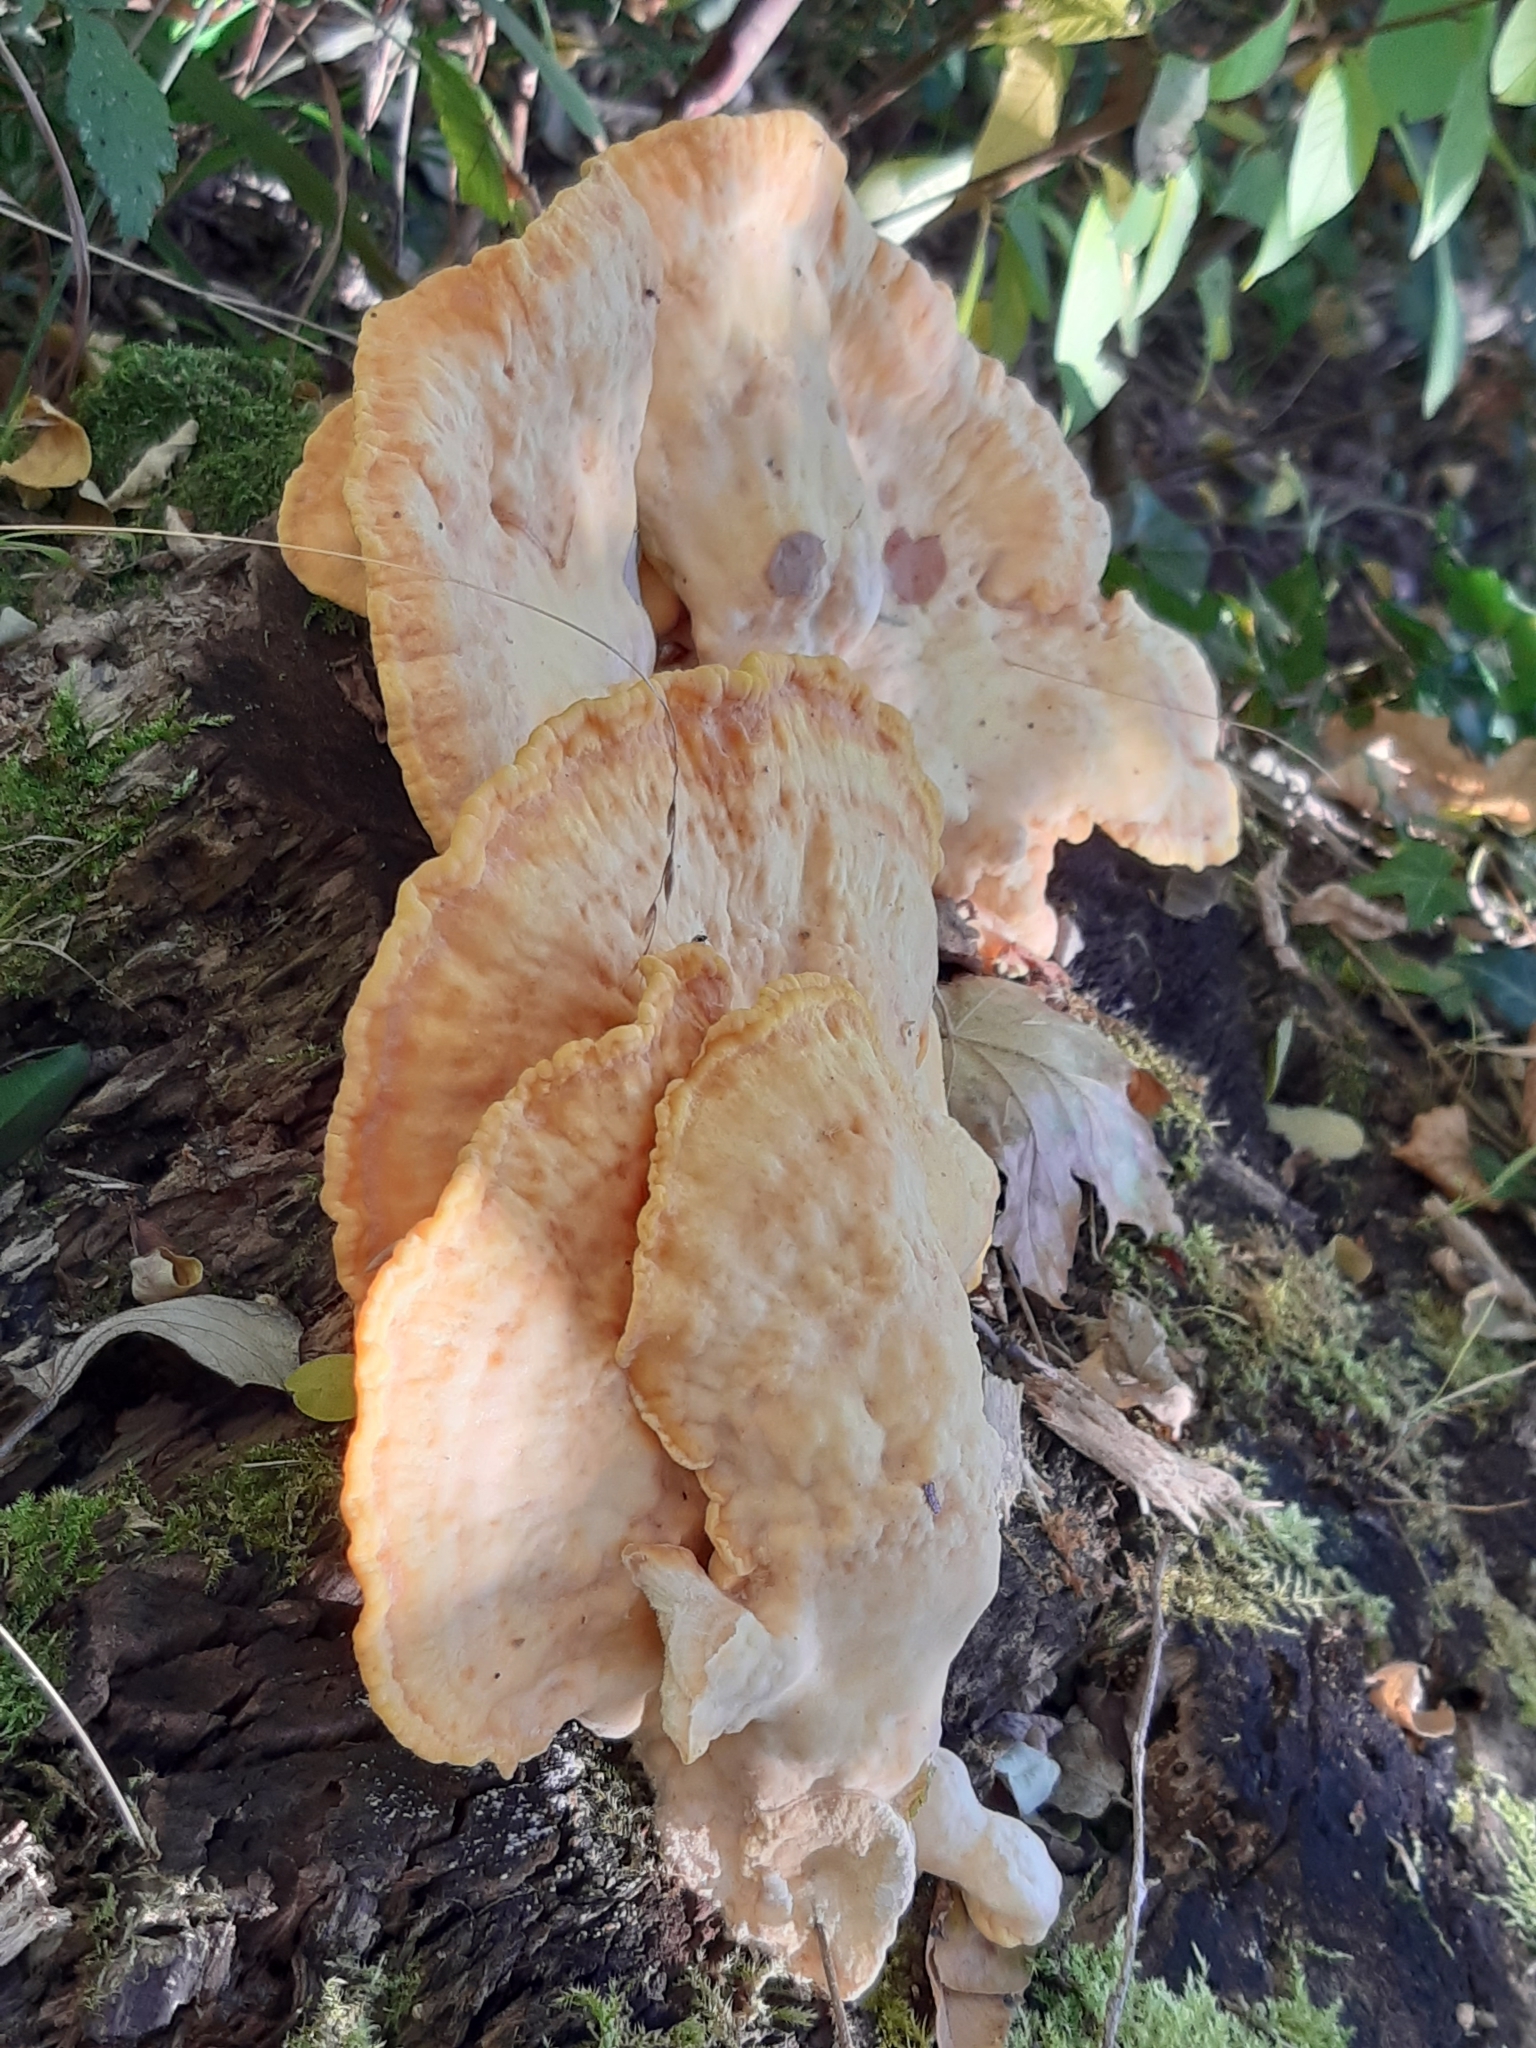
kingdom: Fungi
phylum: Basidiomycota
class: Agaricomycetes
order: Polyporales
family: Laetiporaceae
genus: Laetiporus
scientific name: Laetiporus sulphureus
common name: Chicken of the woods
